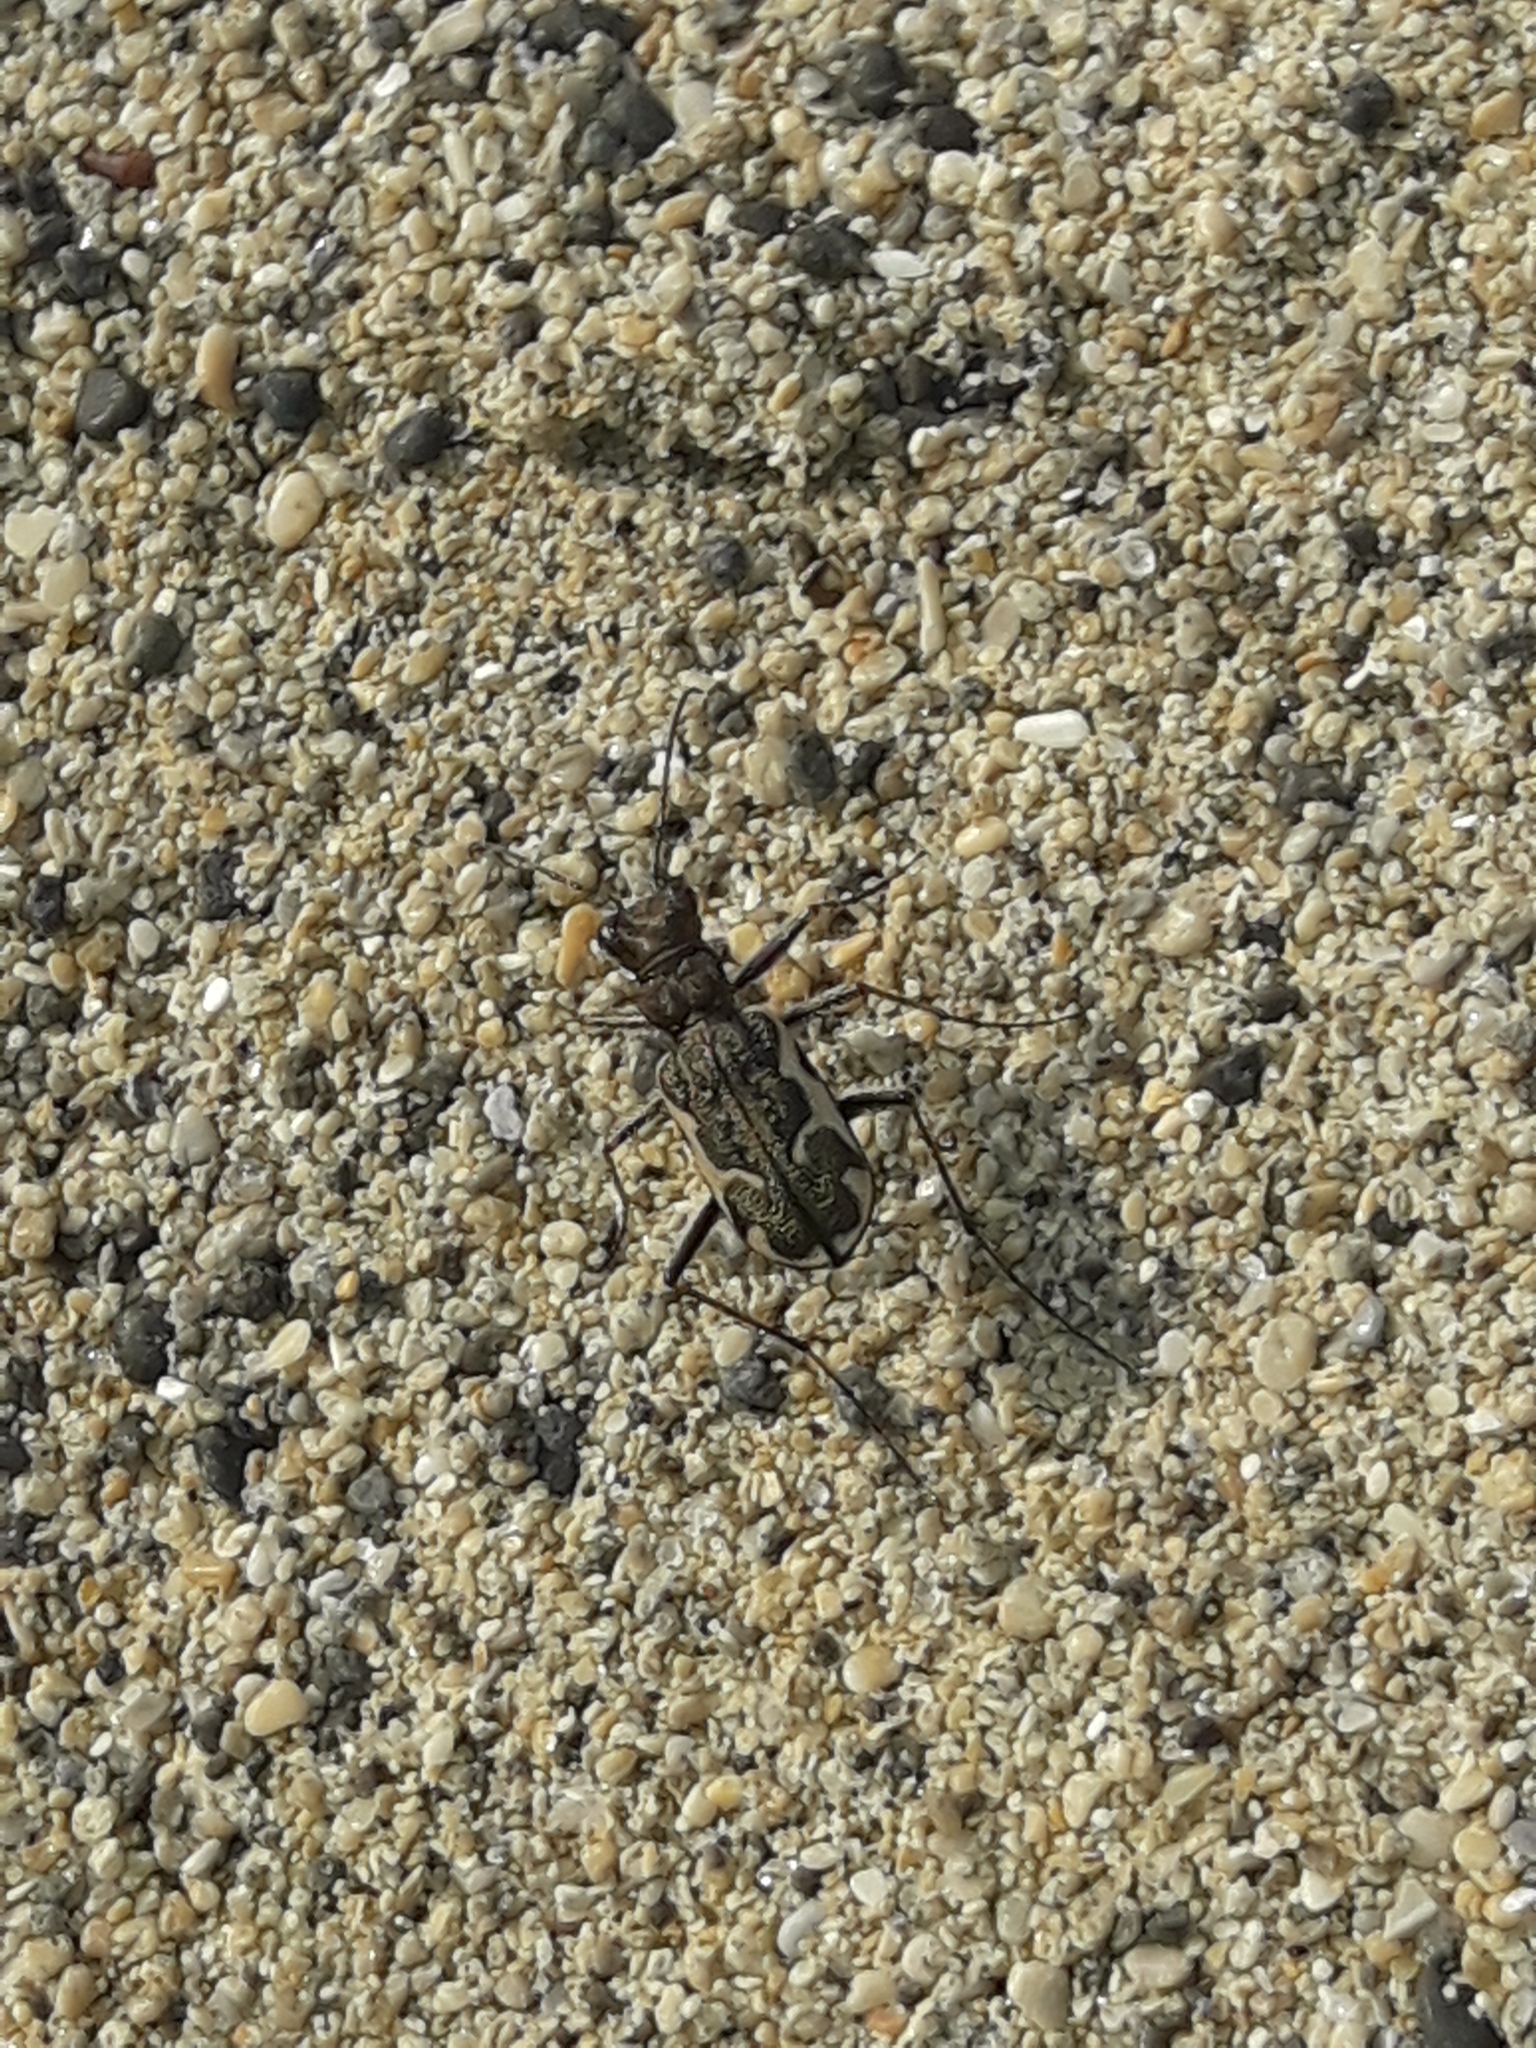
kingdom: Animalia
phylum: Arthropoda
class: Insecta
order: Coleoptera
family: Carabidae
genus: Neocicindela
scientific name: Neocicindela tuberculata
